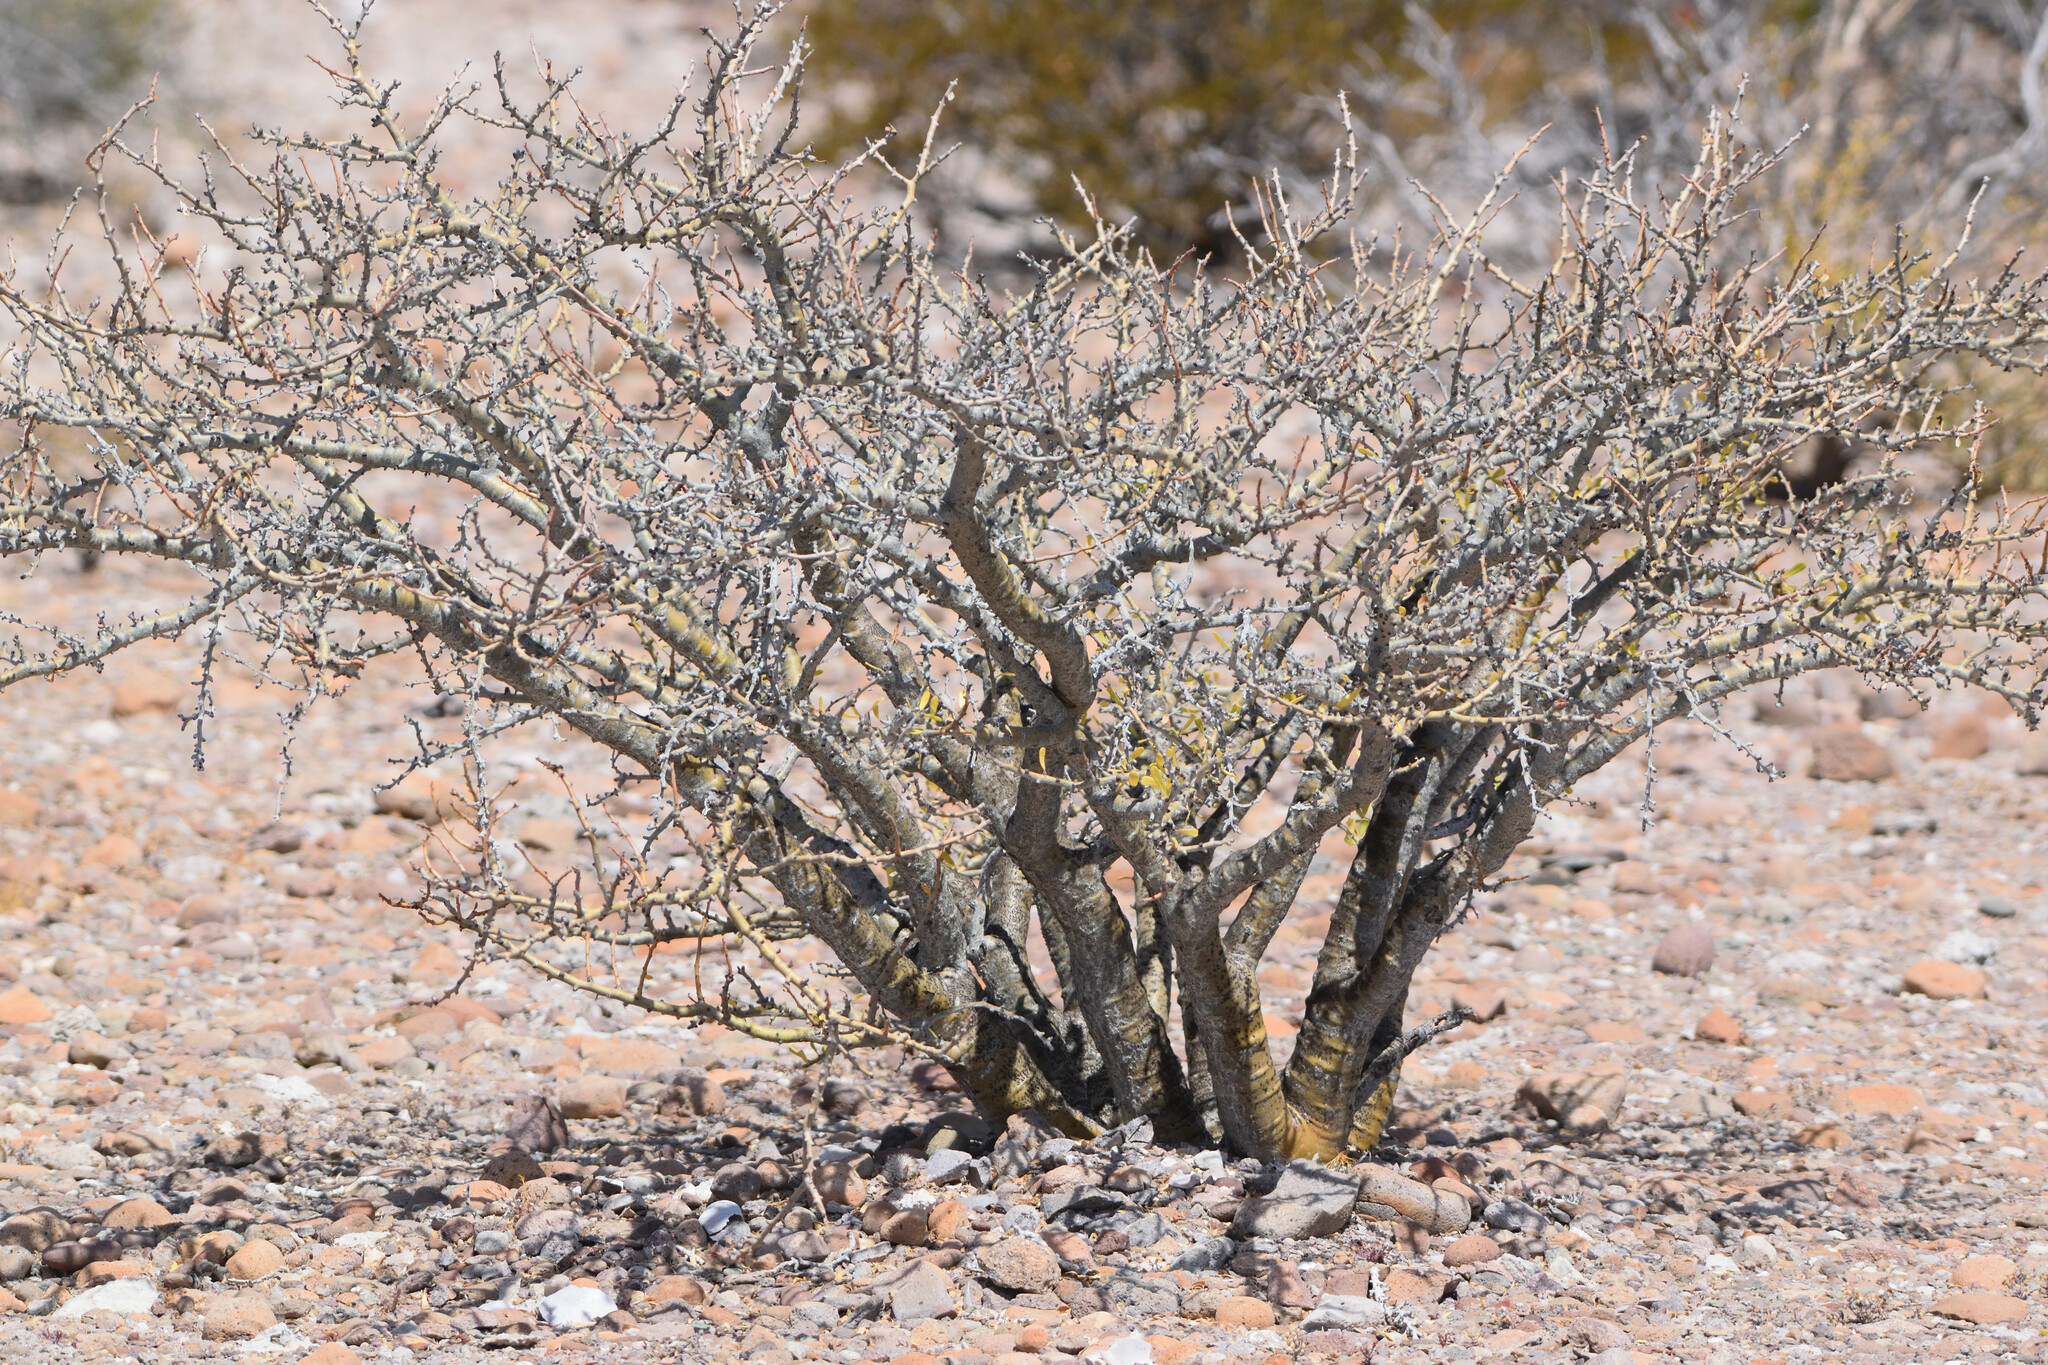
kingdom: Plantae
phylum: Tracheophyta
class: Magnoliopsida
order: Malpighiales
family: Euphorbiaceae
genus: Jatropha
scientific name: Jatropha cuneata
